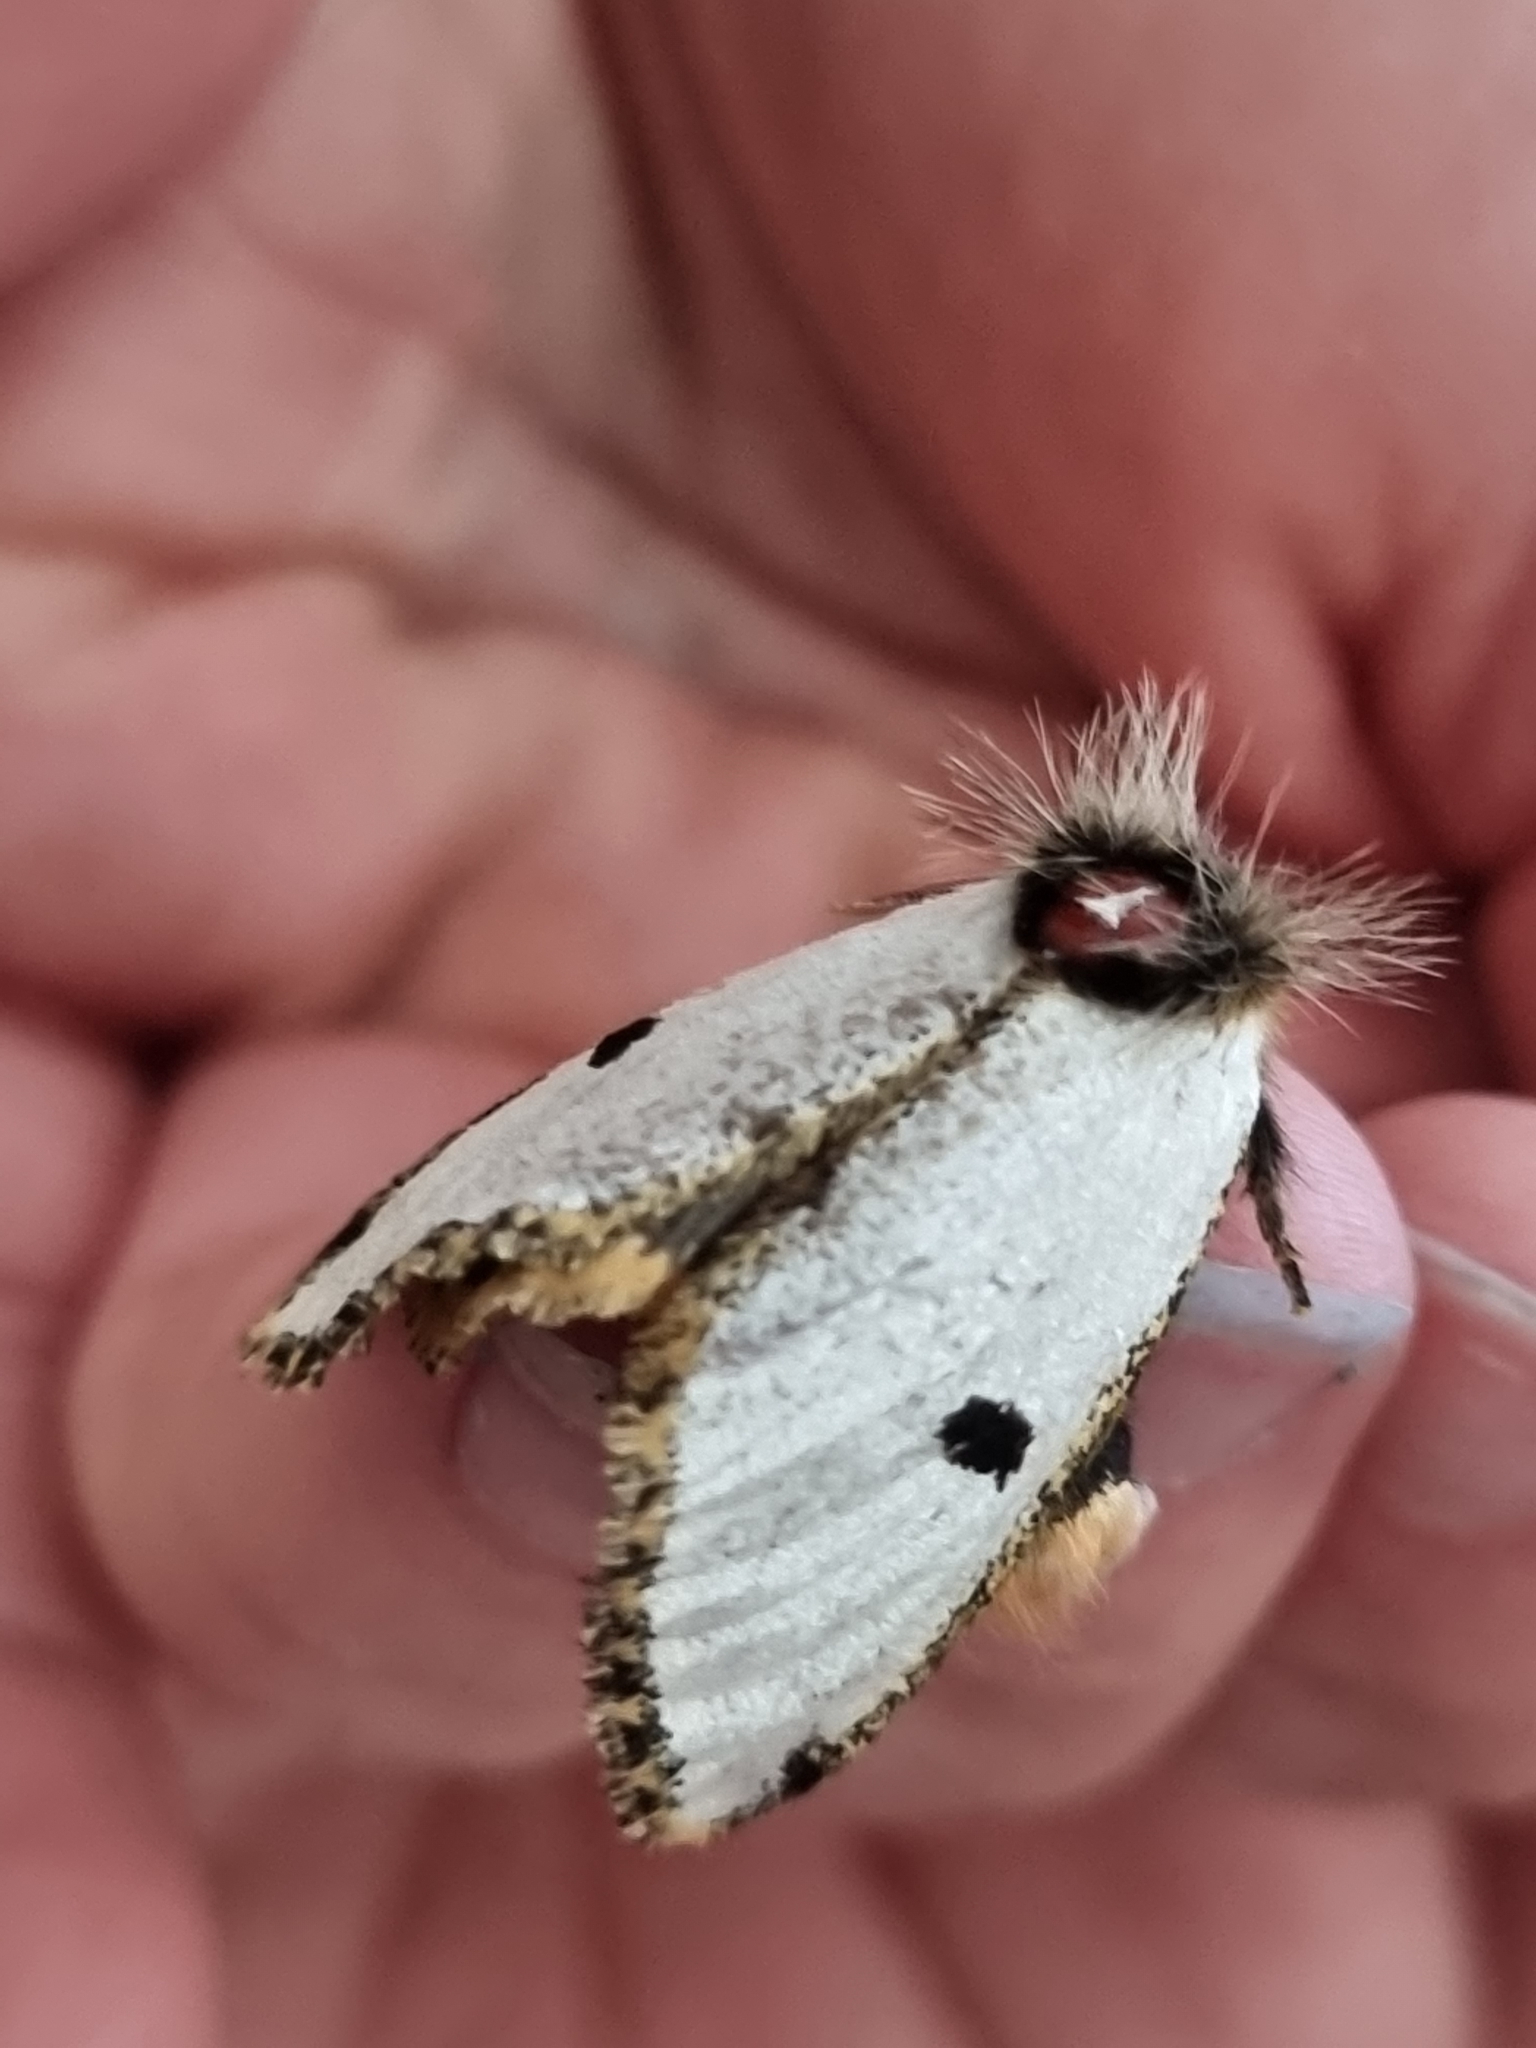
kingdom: Animalia
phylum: Arthropoda
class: Insecta
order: Lepidoptera
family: Notodontidae
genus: Epicoma
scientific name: Epicoma melanospila
